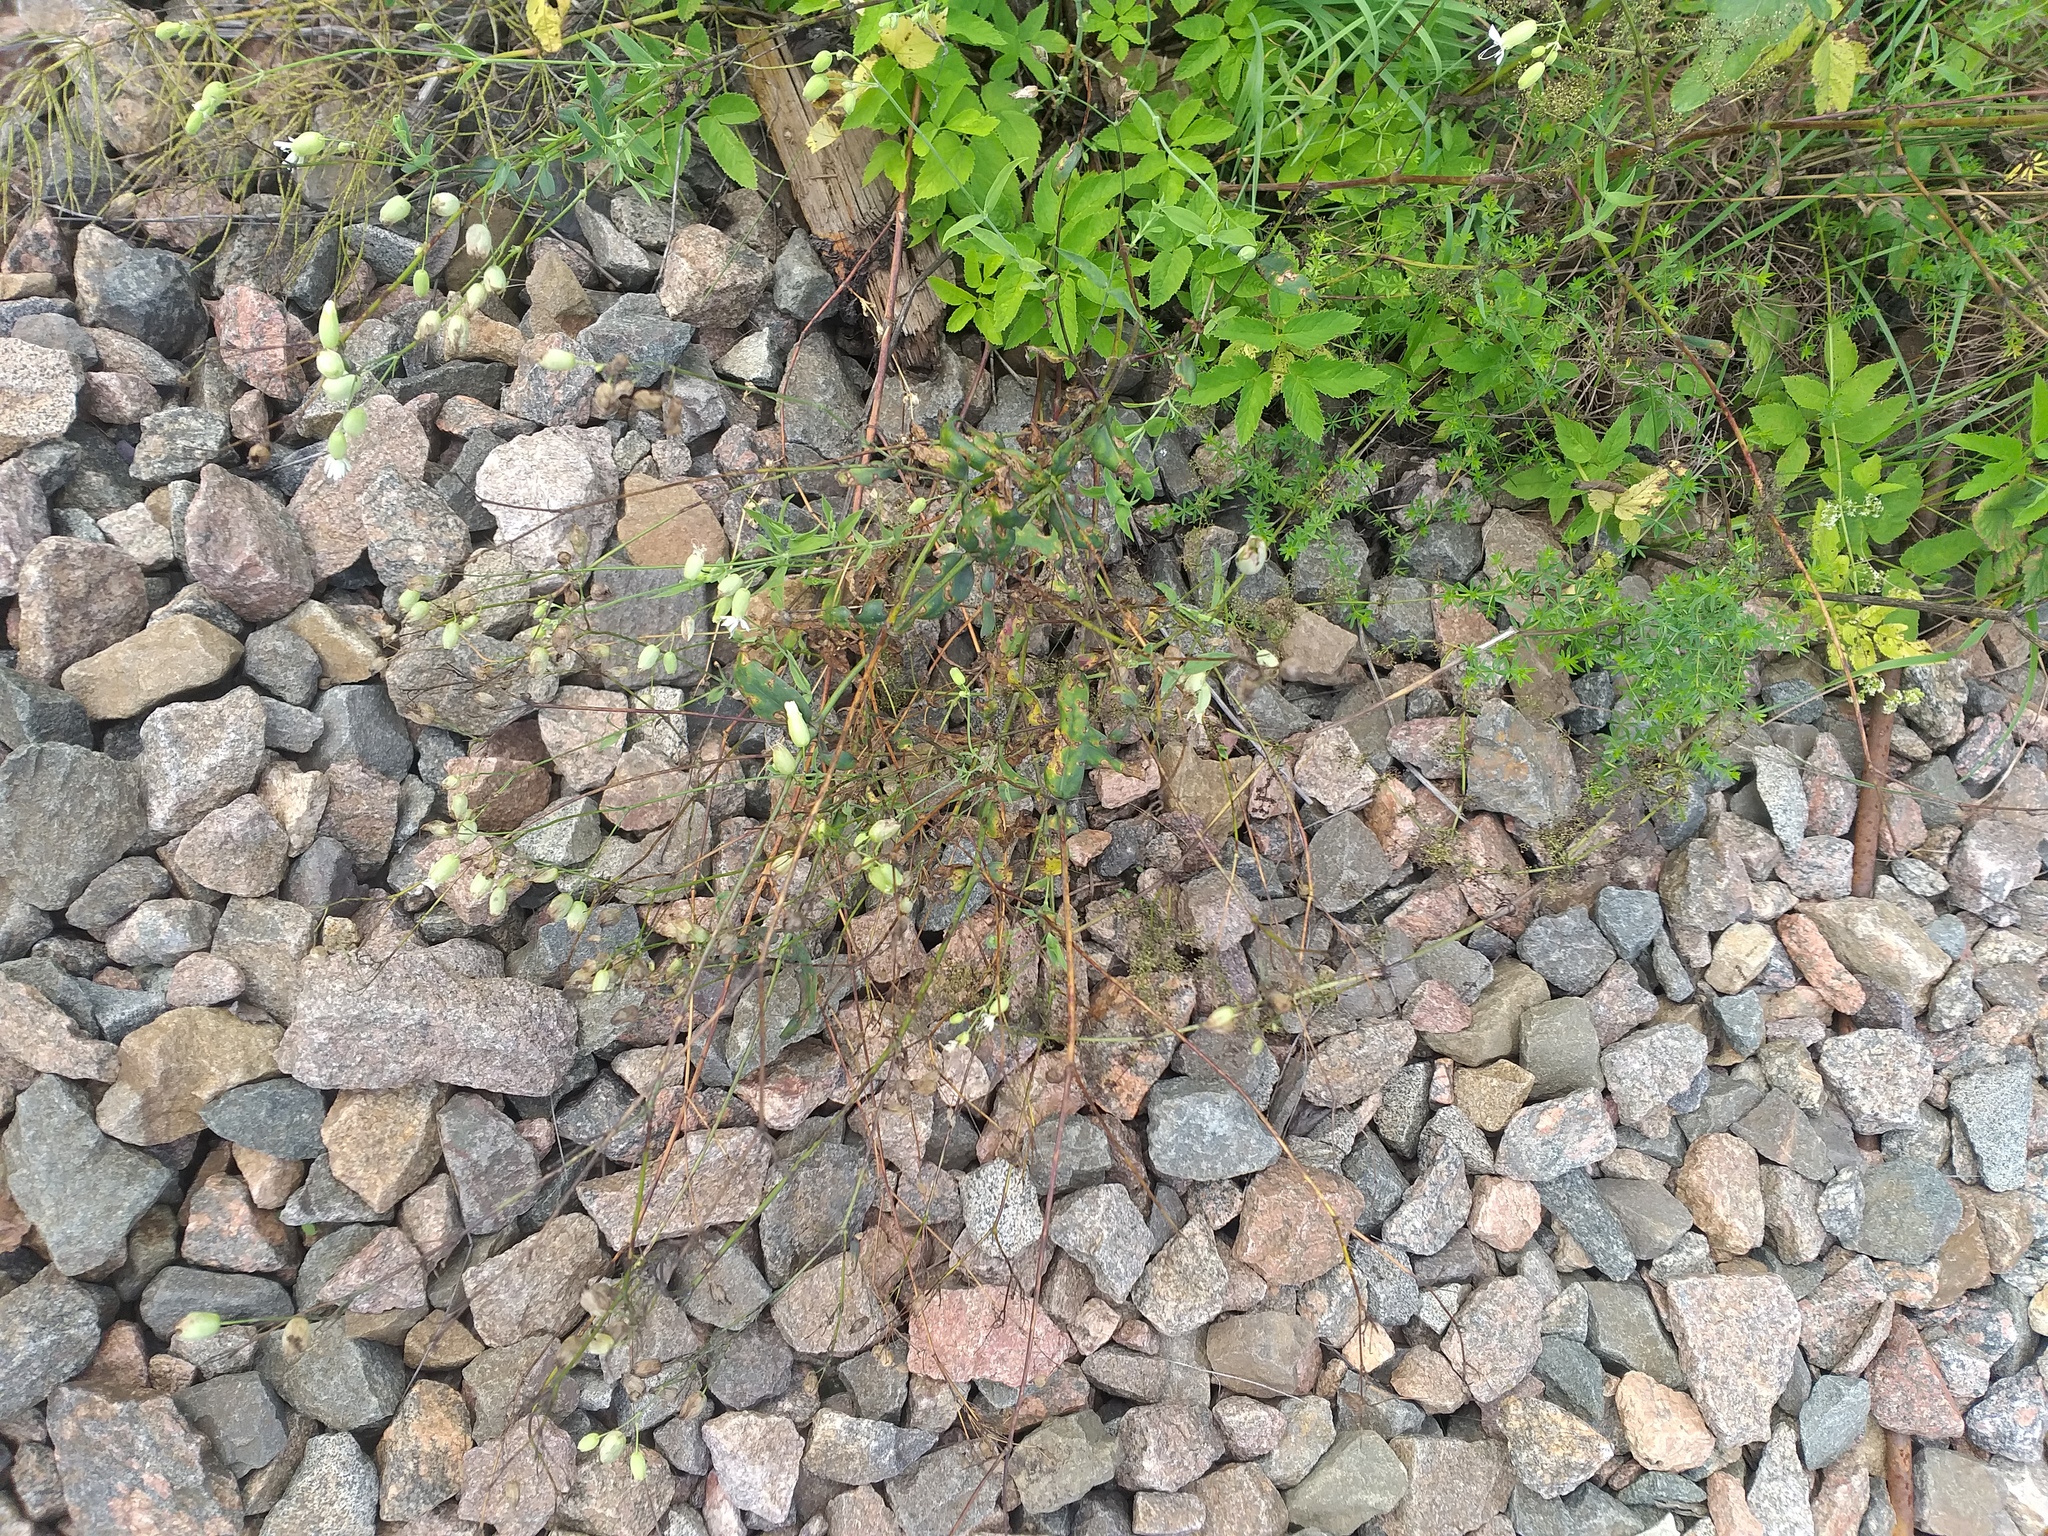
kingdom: Plantae
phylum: Tracheophyta
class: Magnoliopsida
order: Caryophyllales
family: Caryophyllaceae
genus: Silene
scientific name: Silene vulgaris
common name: Bladder campion
